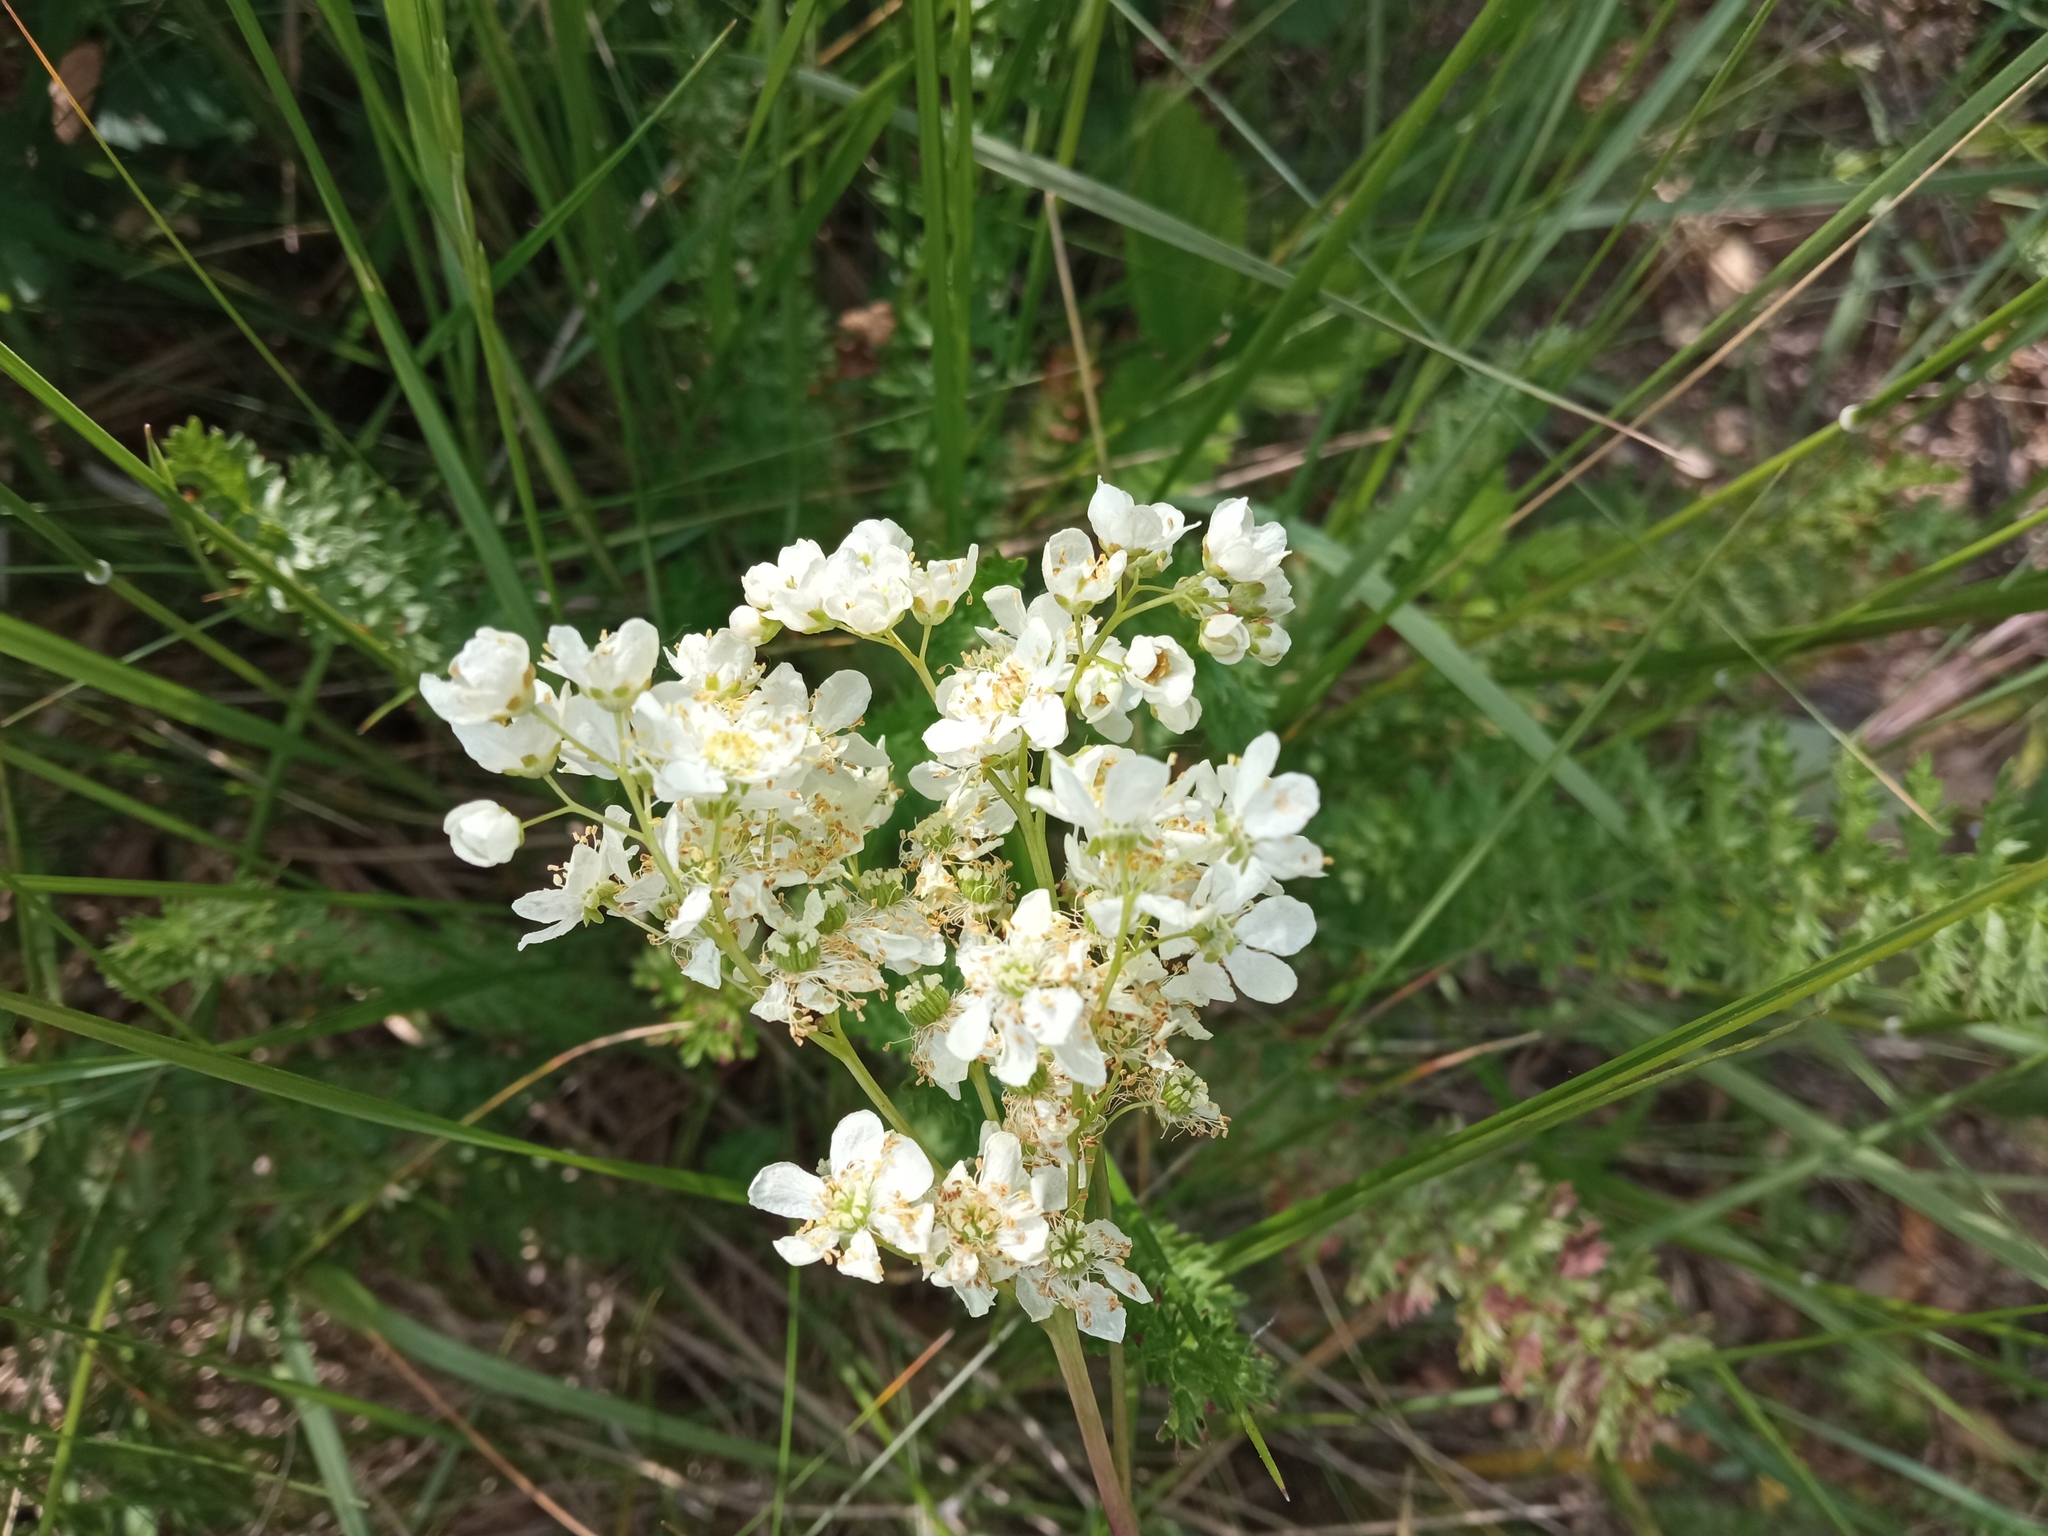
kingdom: Plantae
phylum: Tracheophyta
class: Magnoliopsida
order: Rosales
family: Rosaceae
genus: Filipendula
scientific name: Filipendula vulgaris
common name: Dropwort
